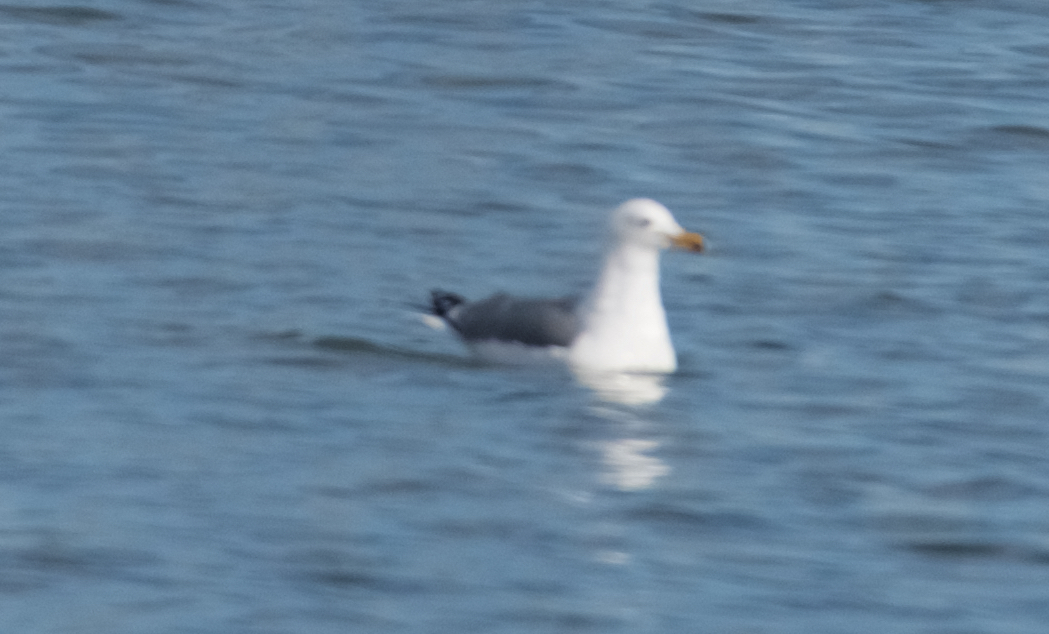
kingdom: Animalia
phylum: Chordata
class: Aves
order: Charadriiformes
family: Laridae
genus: Larus
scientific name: Larus californicus
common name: California gull
